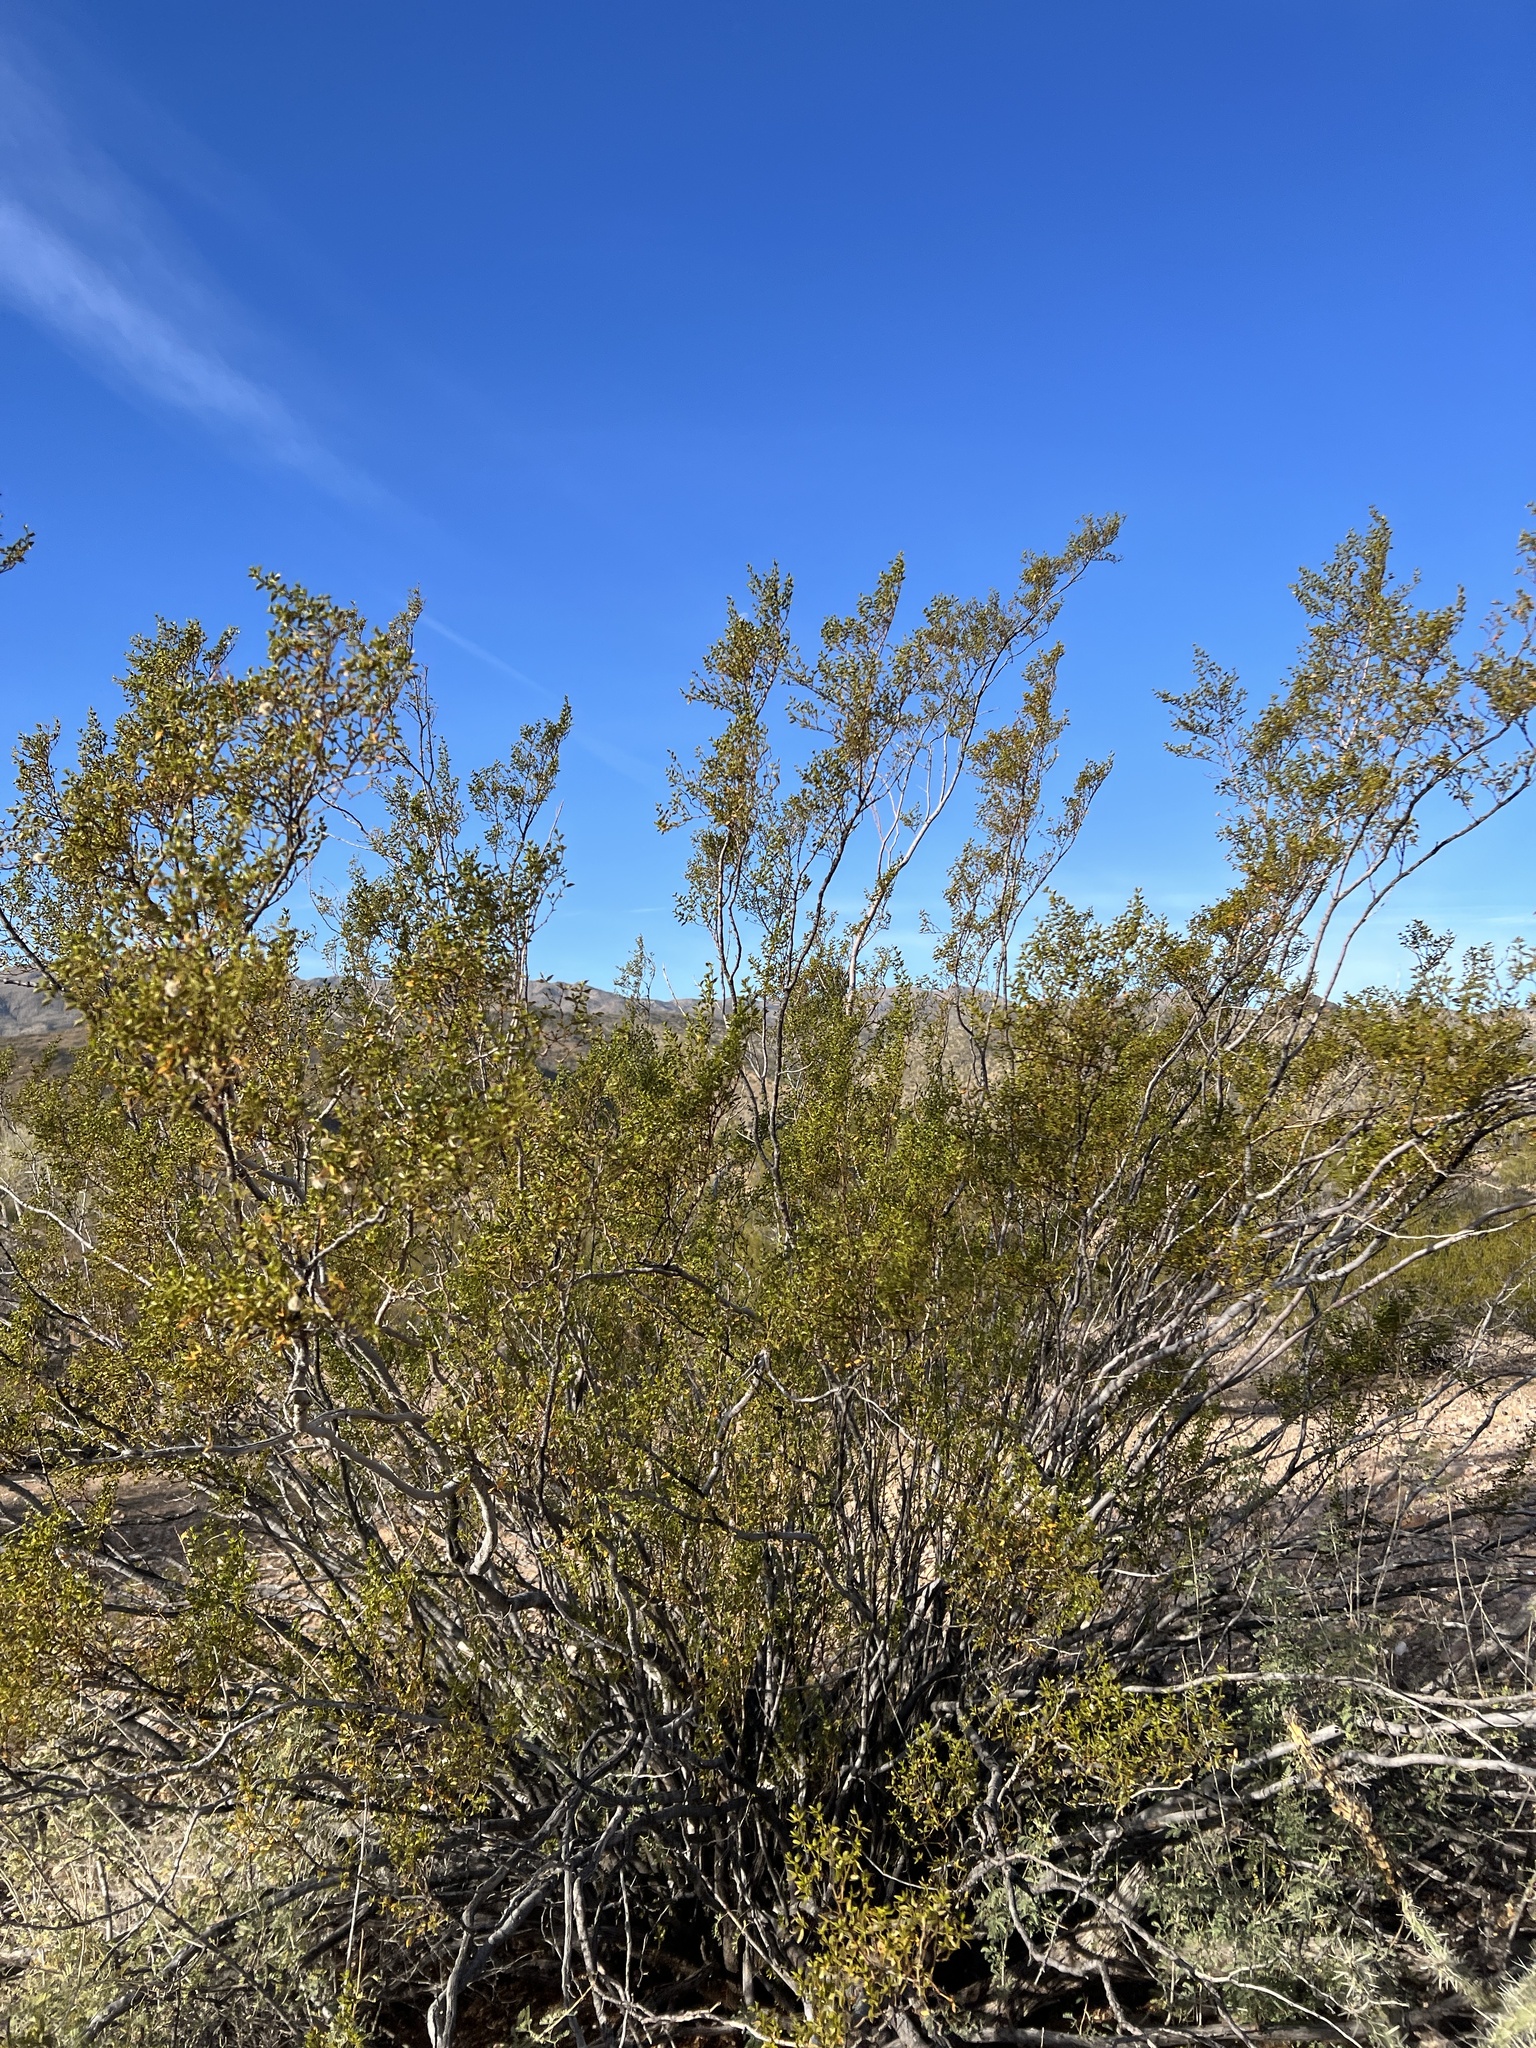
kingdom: Plantae
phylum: Tracheophyta
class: Magnoliopsida
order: Zygophyllales
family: Zygophyllaceae
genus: Larrea
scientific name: Larrea tridentata
